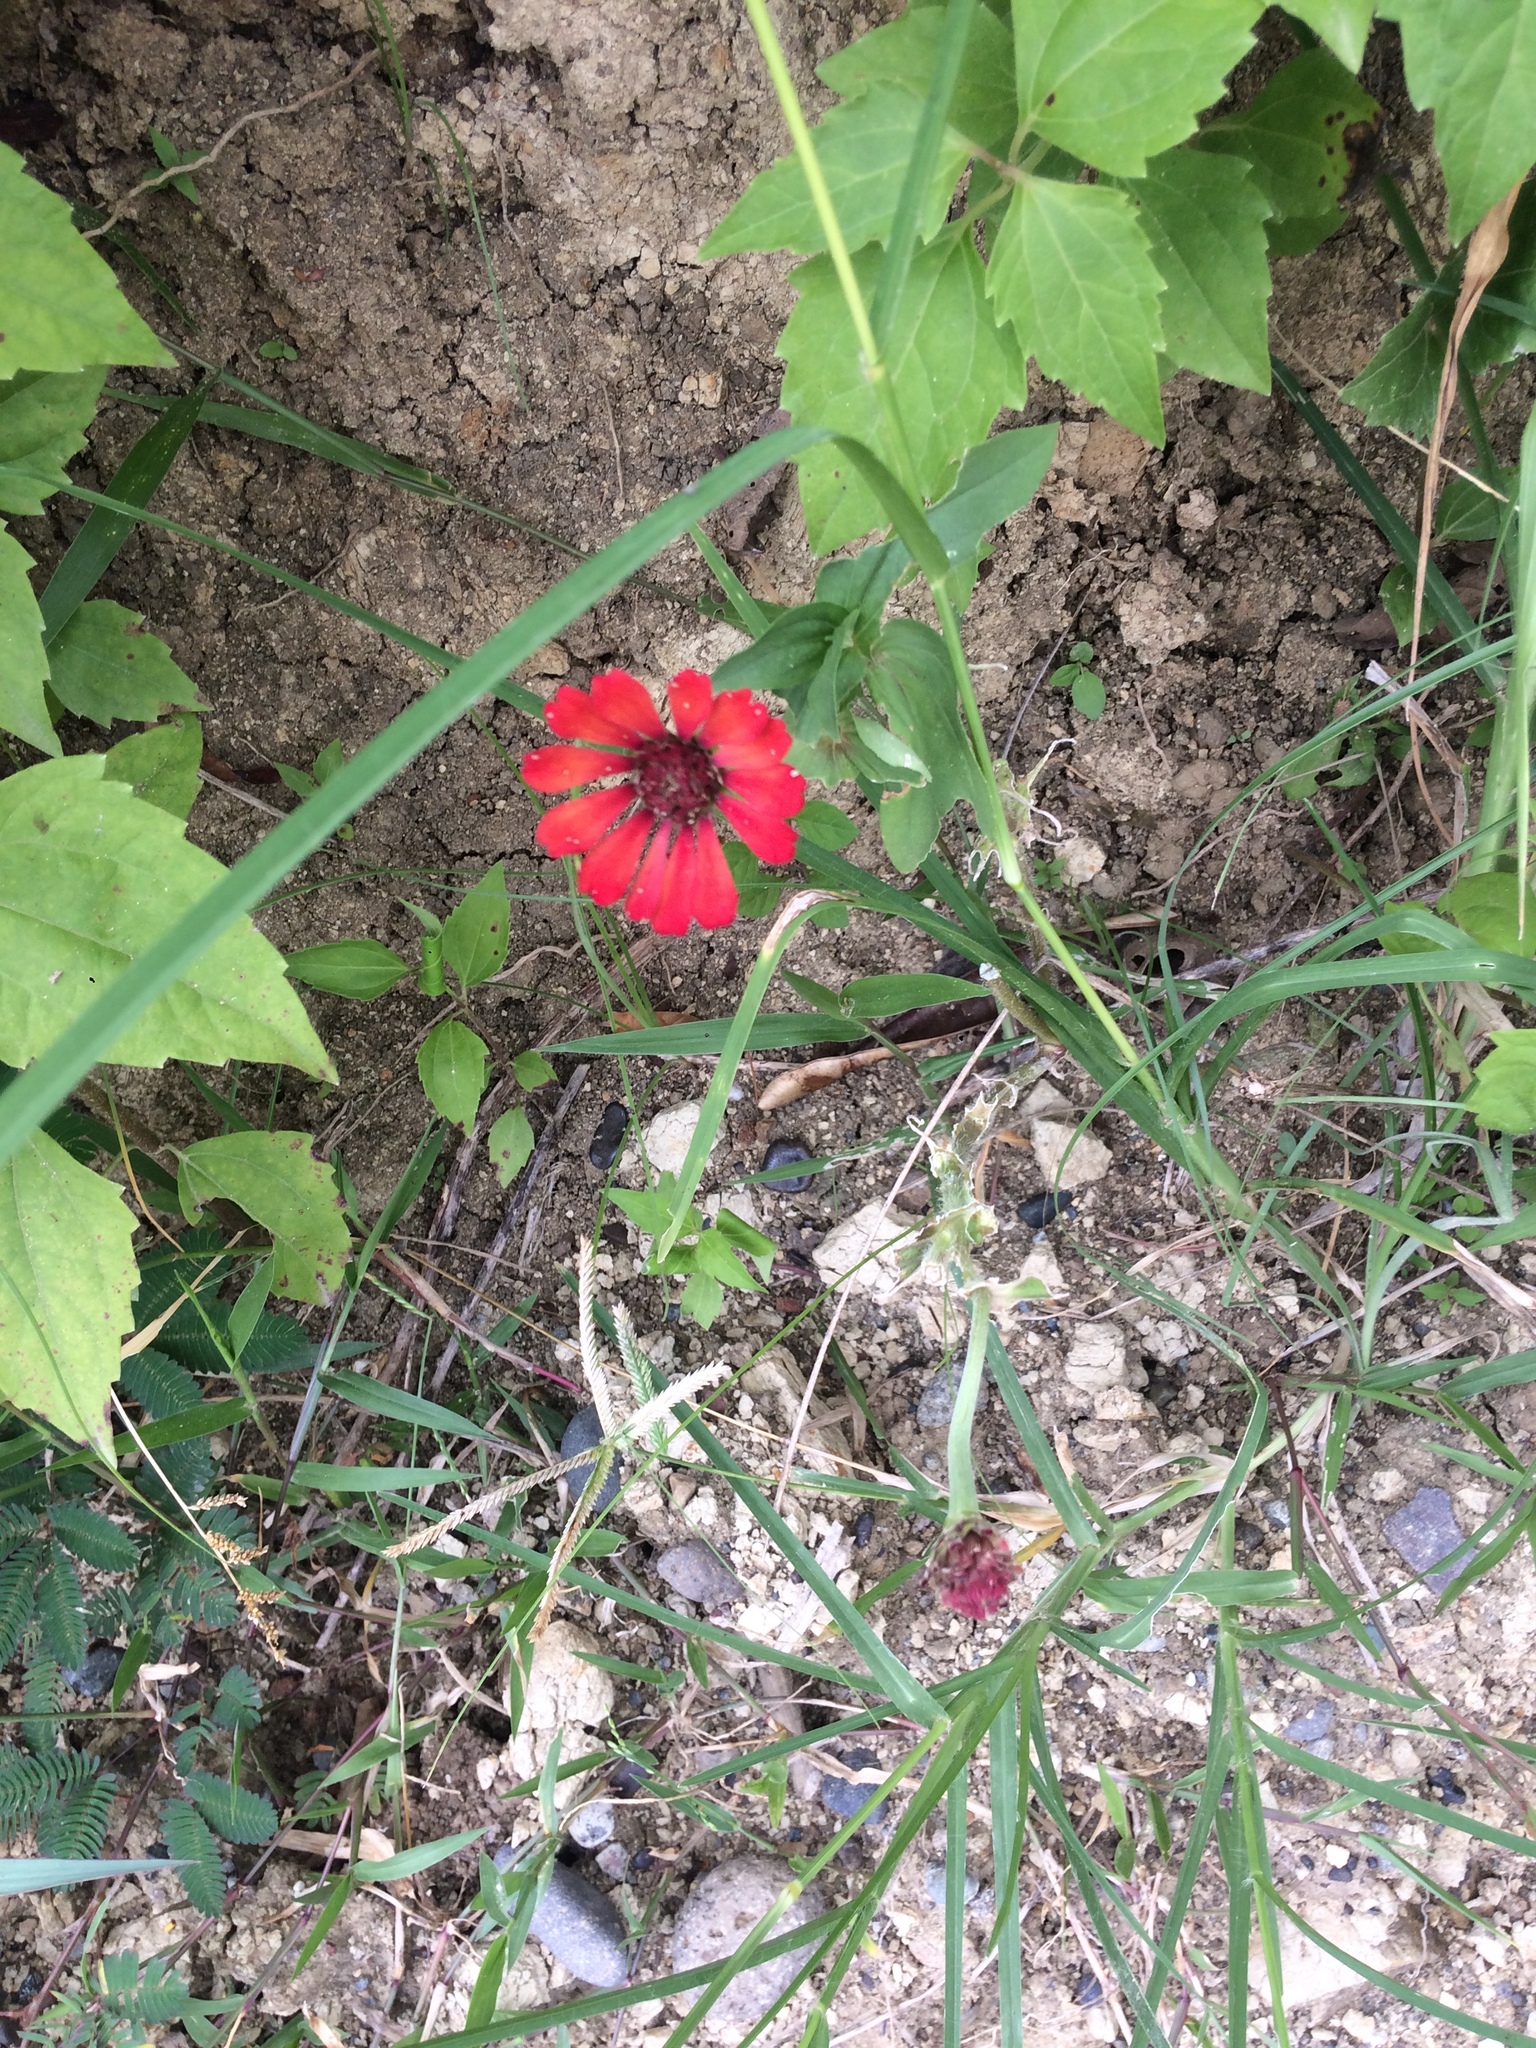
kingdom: Plantae
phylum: Tracheophyta
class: Magnoliopsida
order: Asterales
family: Asteraceae
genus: Zinnia
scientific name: Zinnia elegans
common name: Youth-and-age
